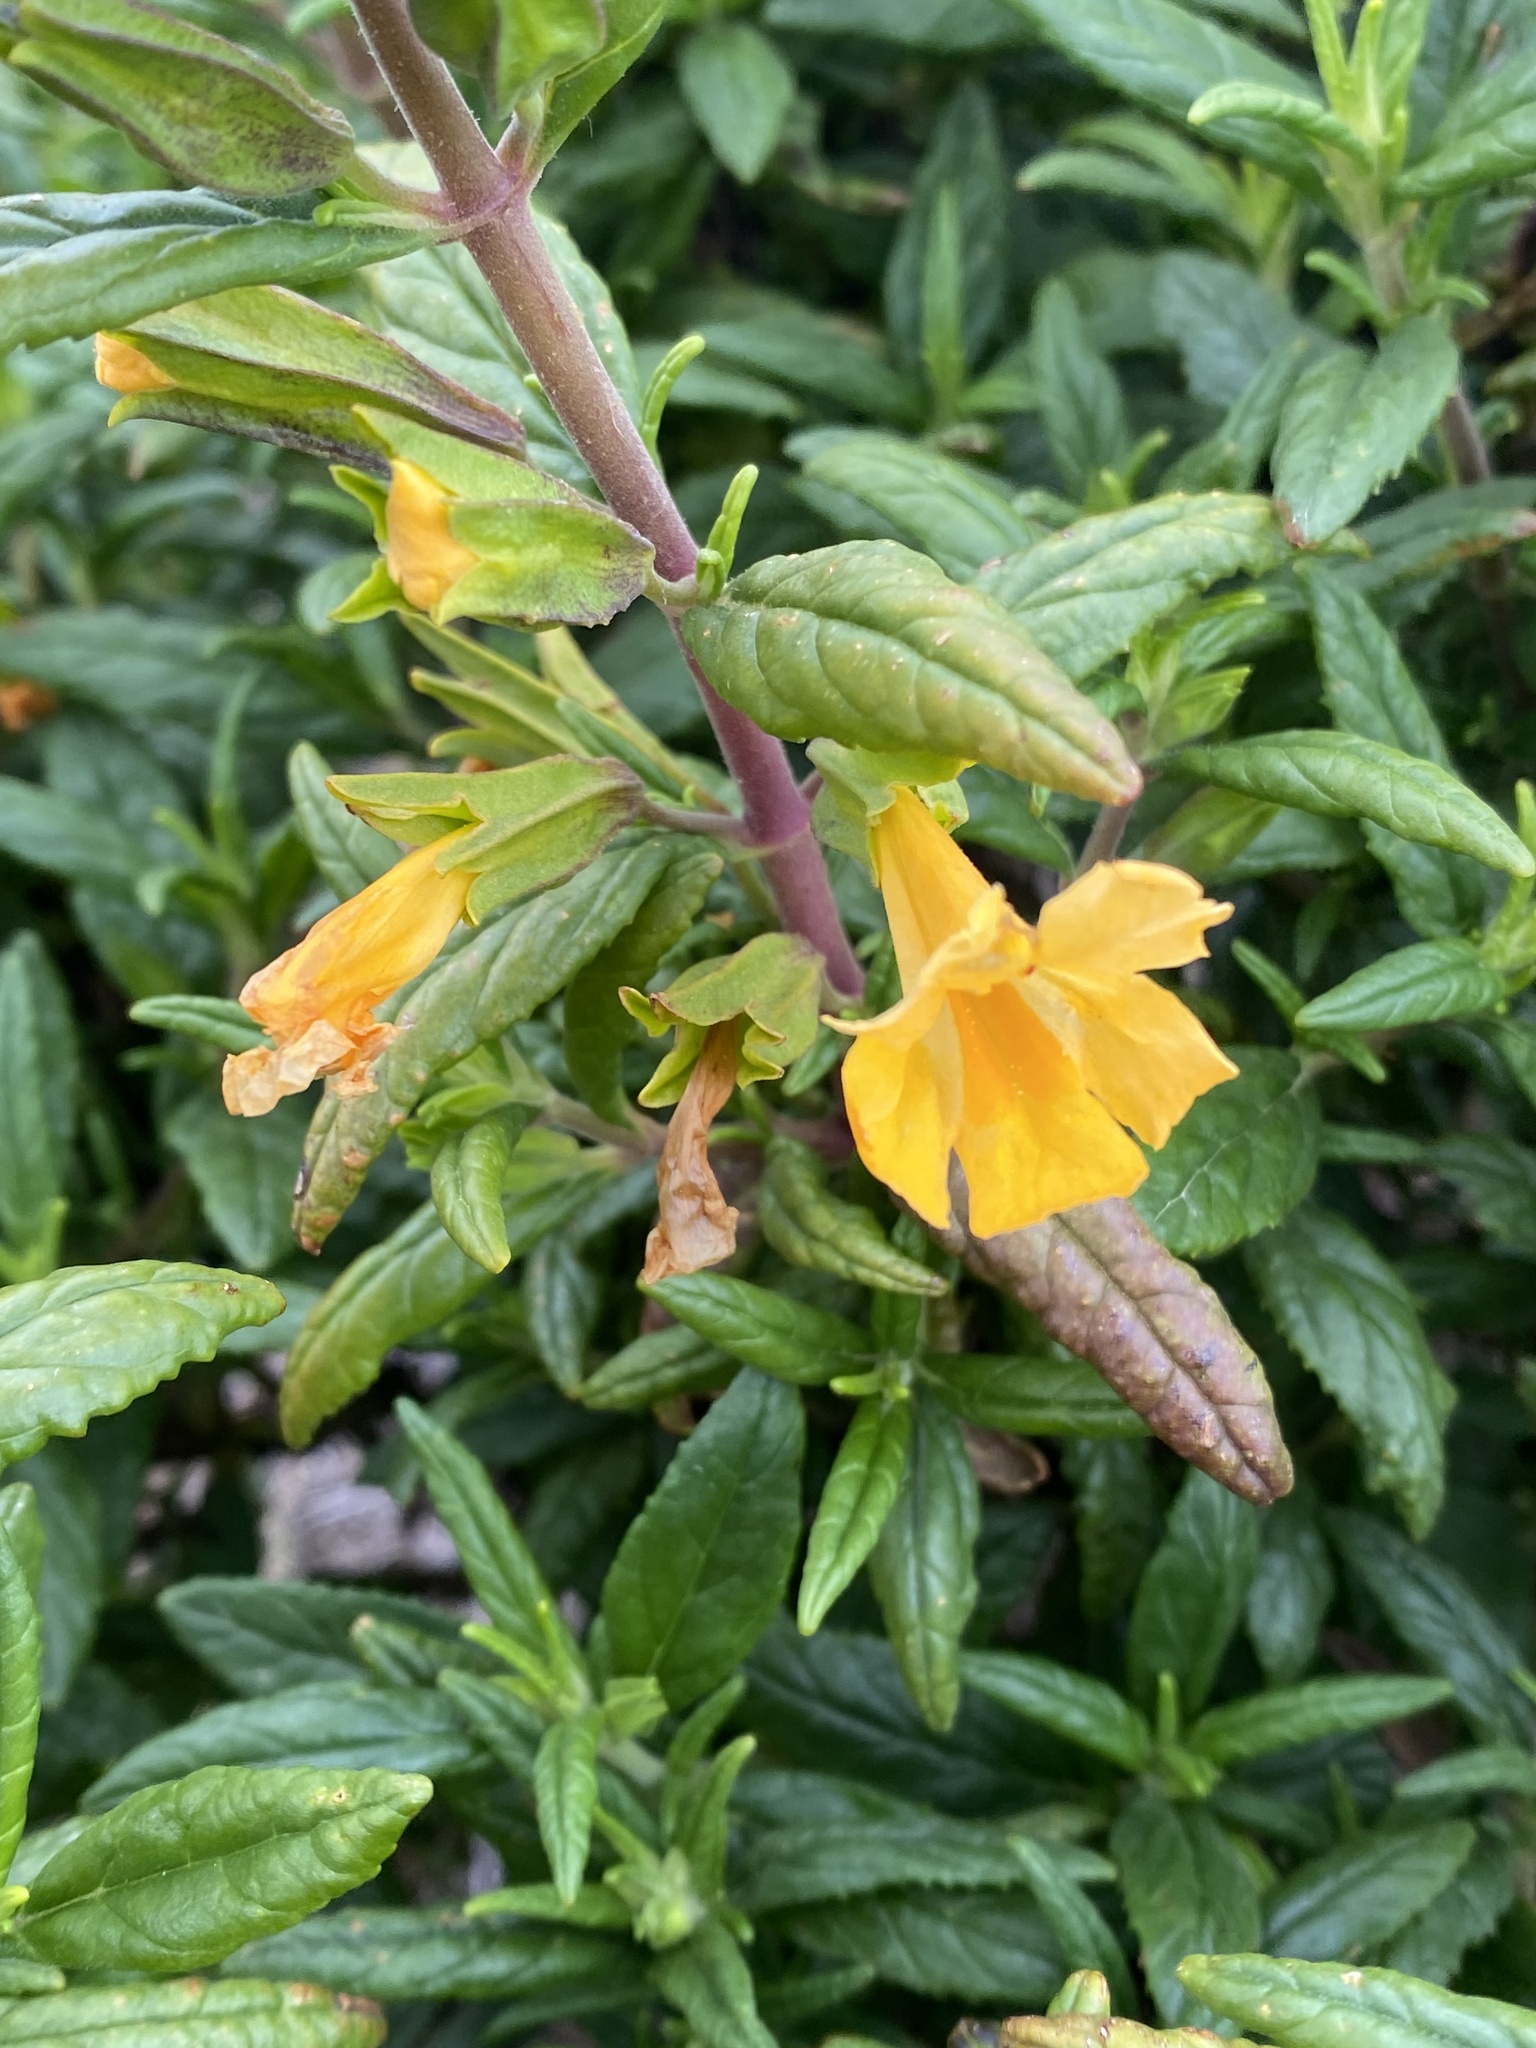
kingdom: Plantae
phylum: Tracheophyta
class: Magnoliopsida
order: Lamiales
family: Phrymaceae
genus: Diplacus
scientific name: Diplacus aurantiacus
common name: Bush monkey-flower
